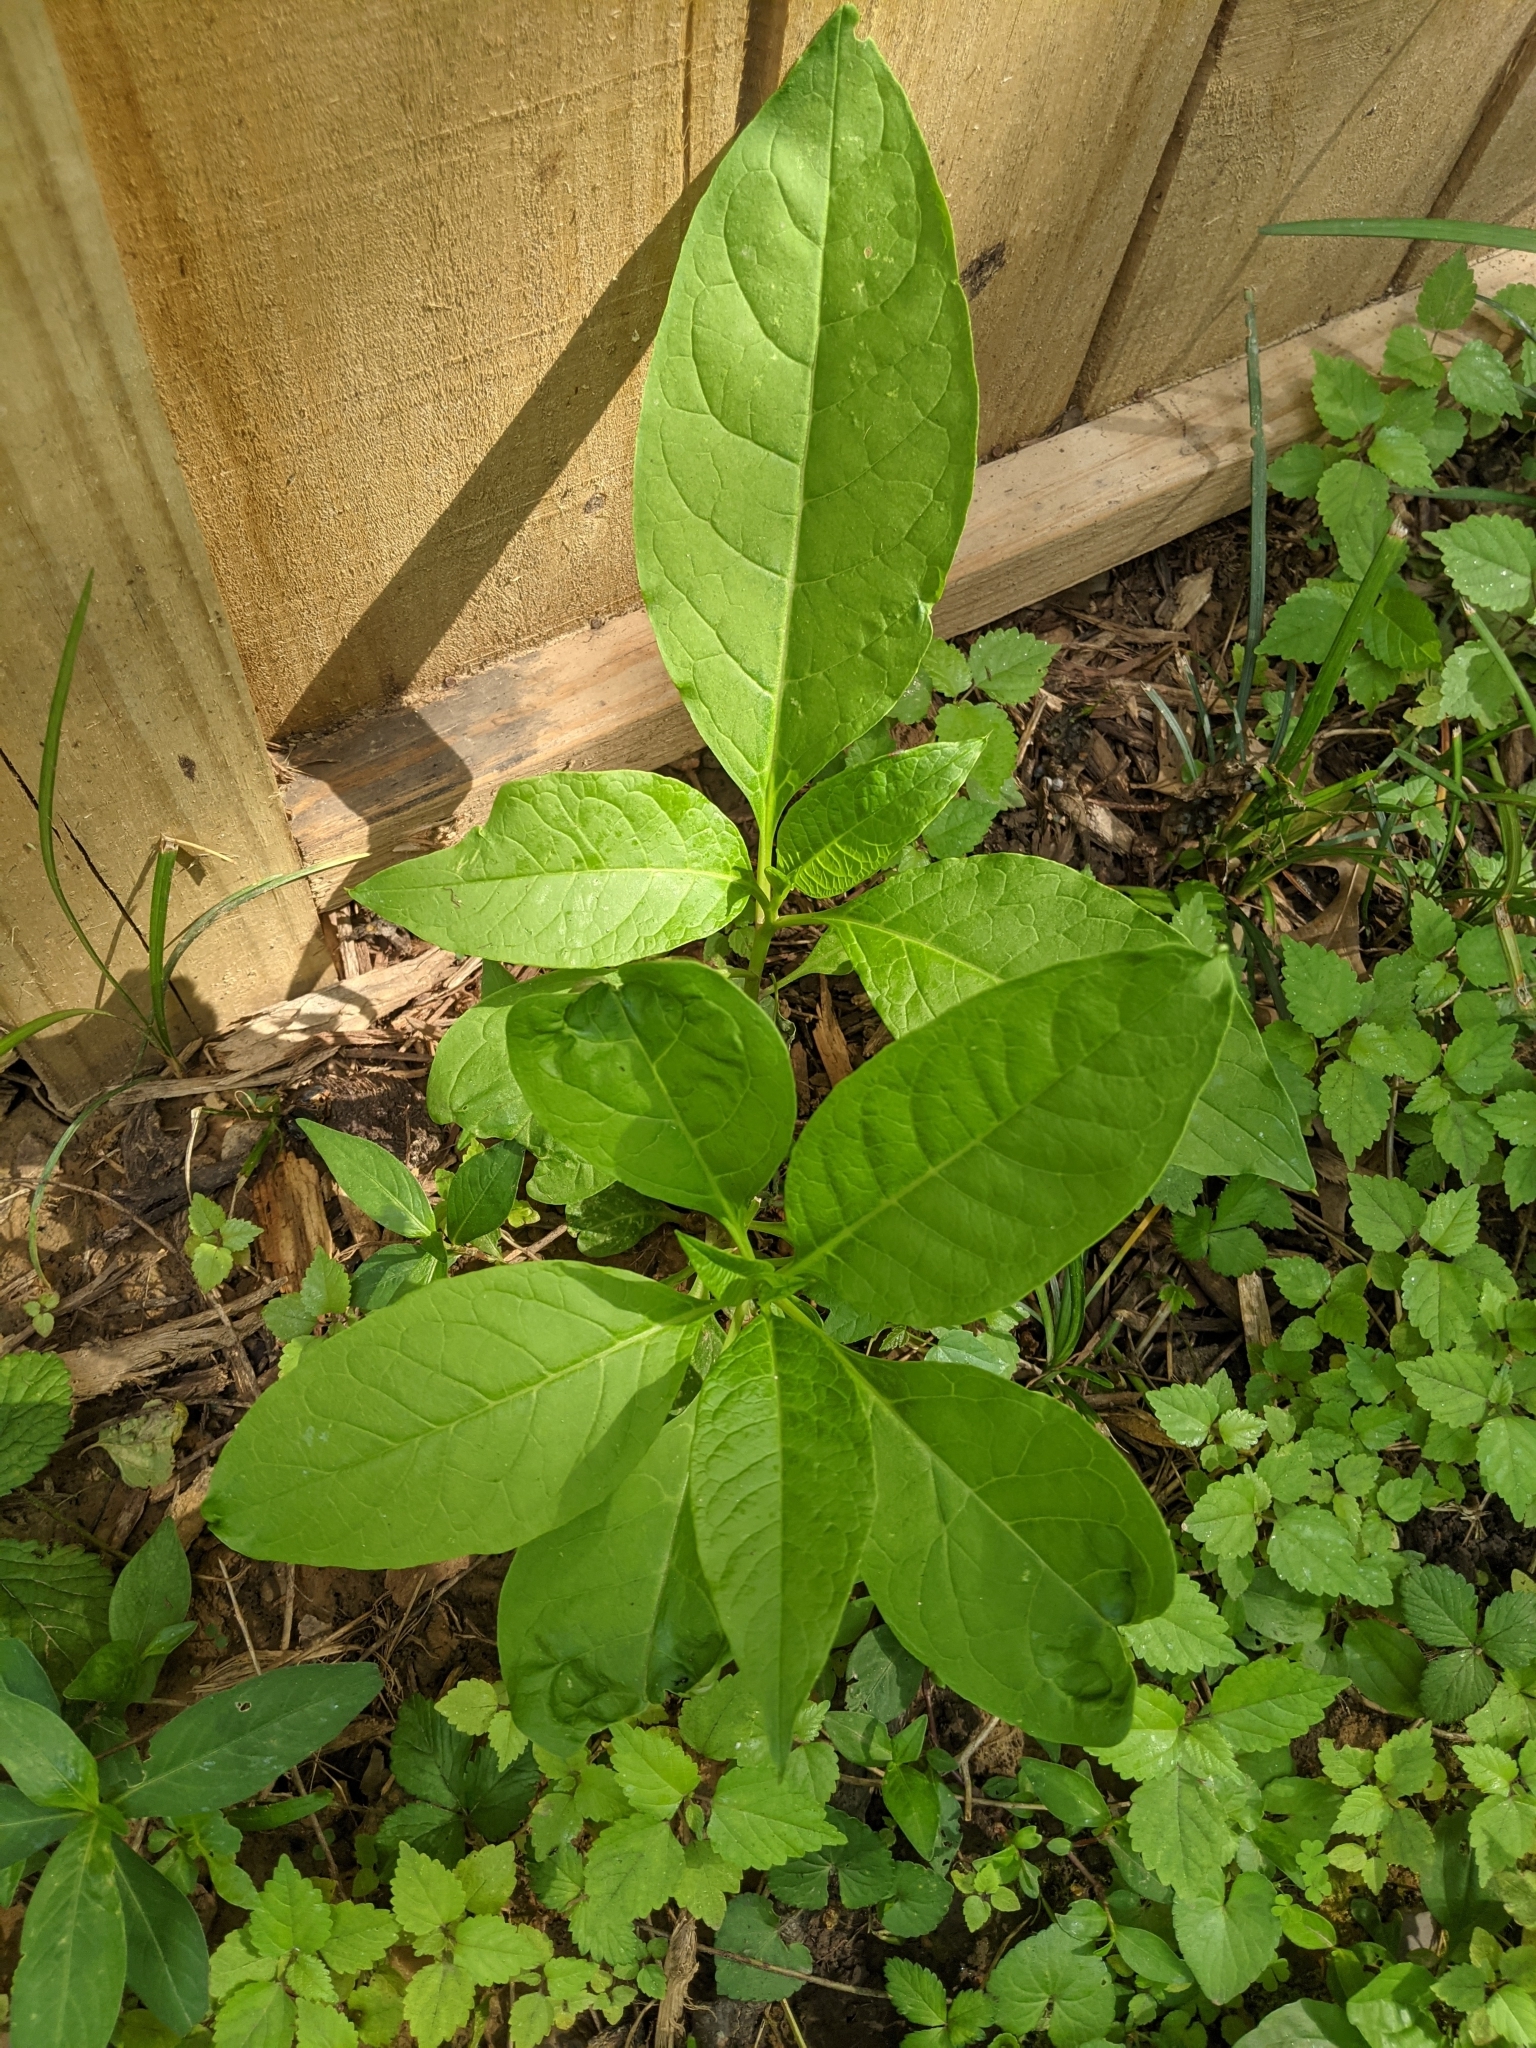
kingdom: Plantae
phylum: Tracheophyta
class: Magnoliopsida
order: Caryophyllales
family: Phytolaccaceae
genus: Phytolacca
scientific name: Phytolacca americana
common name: American pokeweed
